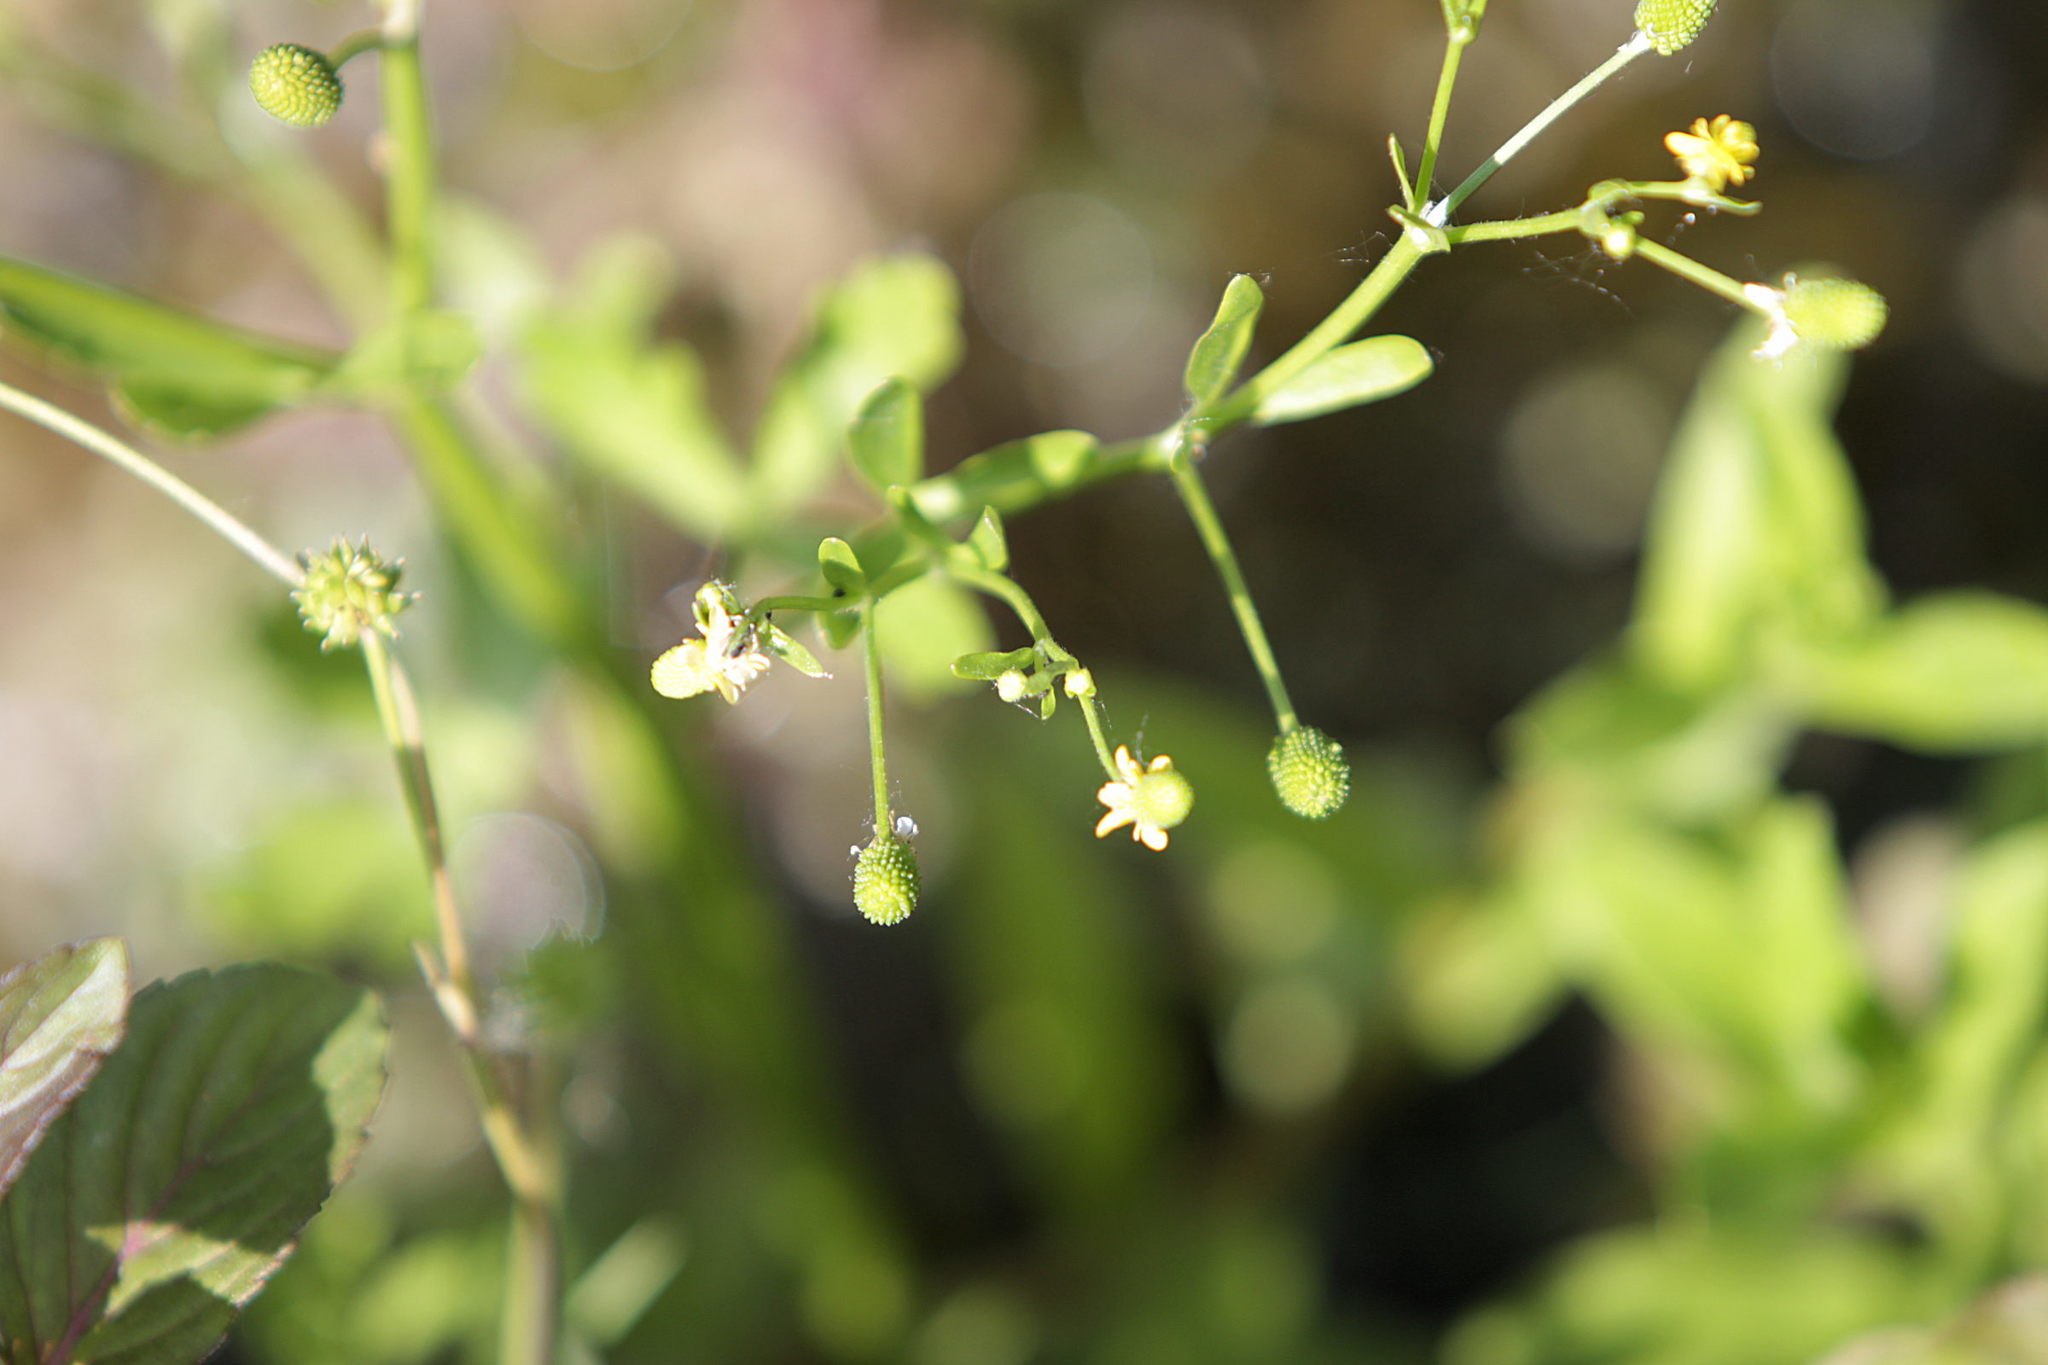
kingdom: Plantae
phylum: Tracheophyta
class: Magnoliopsida
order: Ranunculales
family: Ranunculaceae
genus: Ranunculus
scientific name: Ranunculus sceleratus
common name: Celery-leaved buttercup
